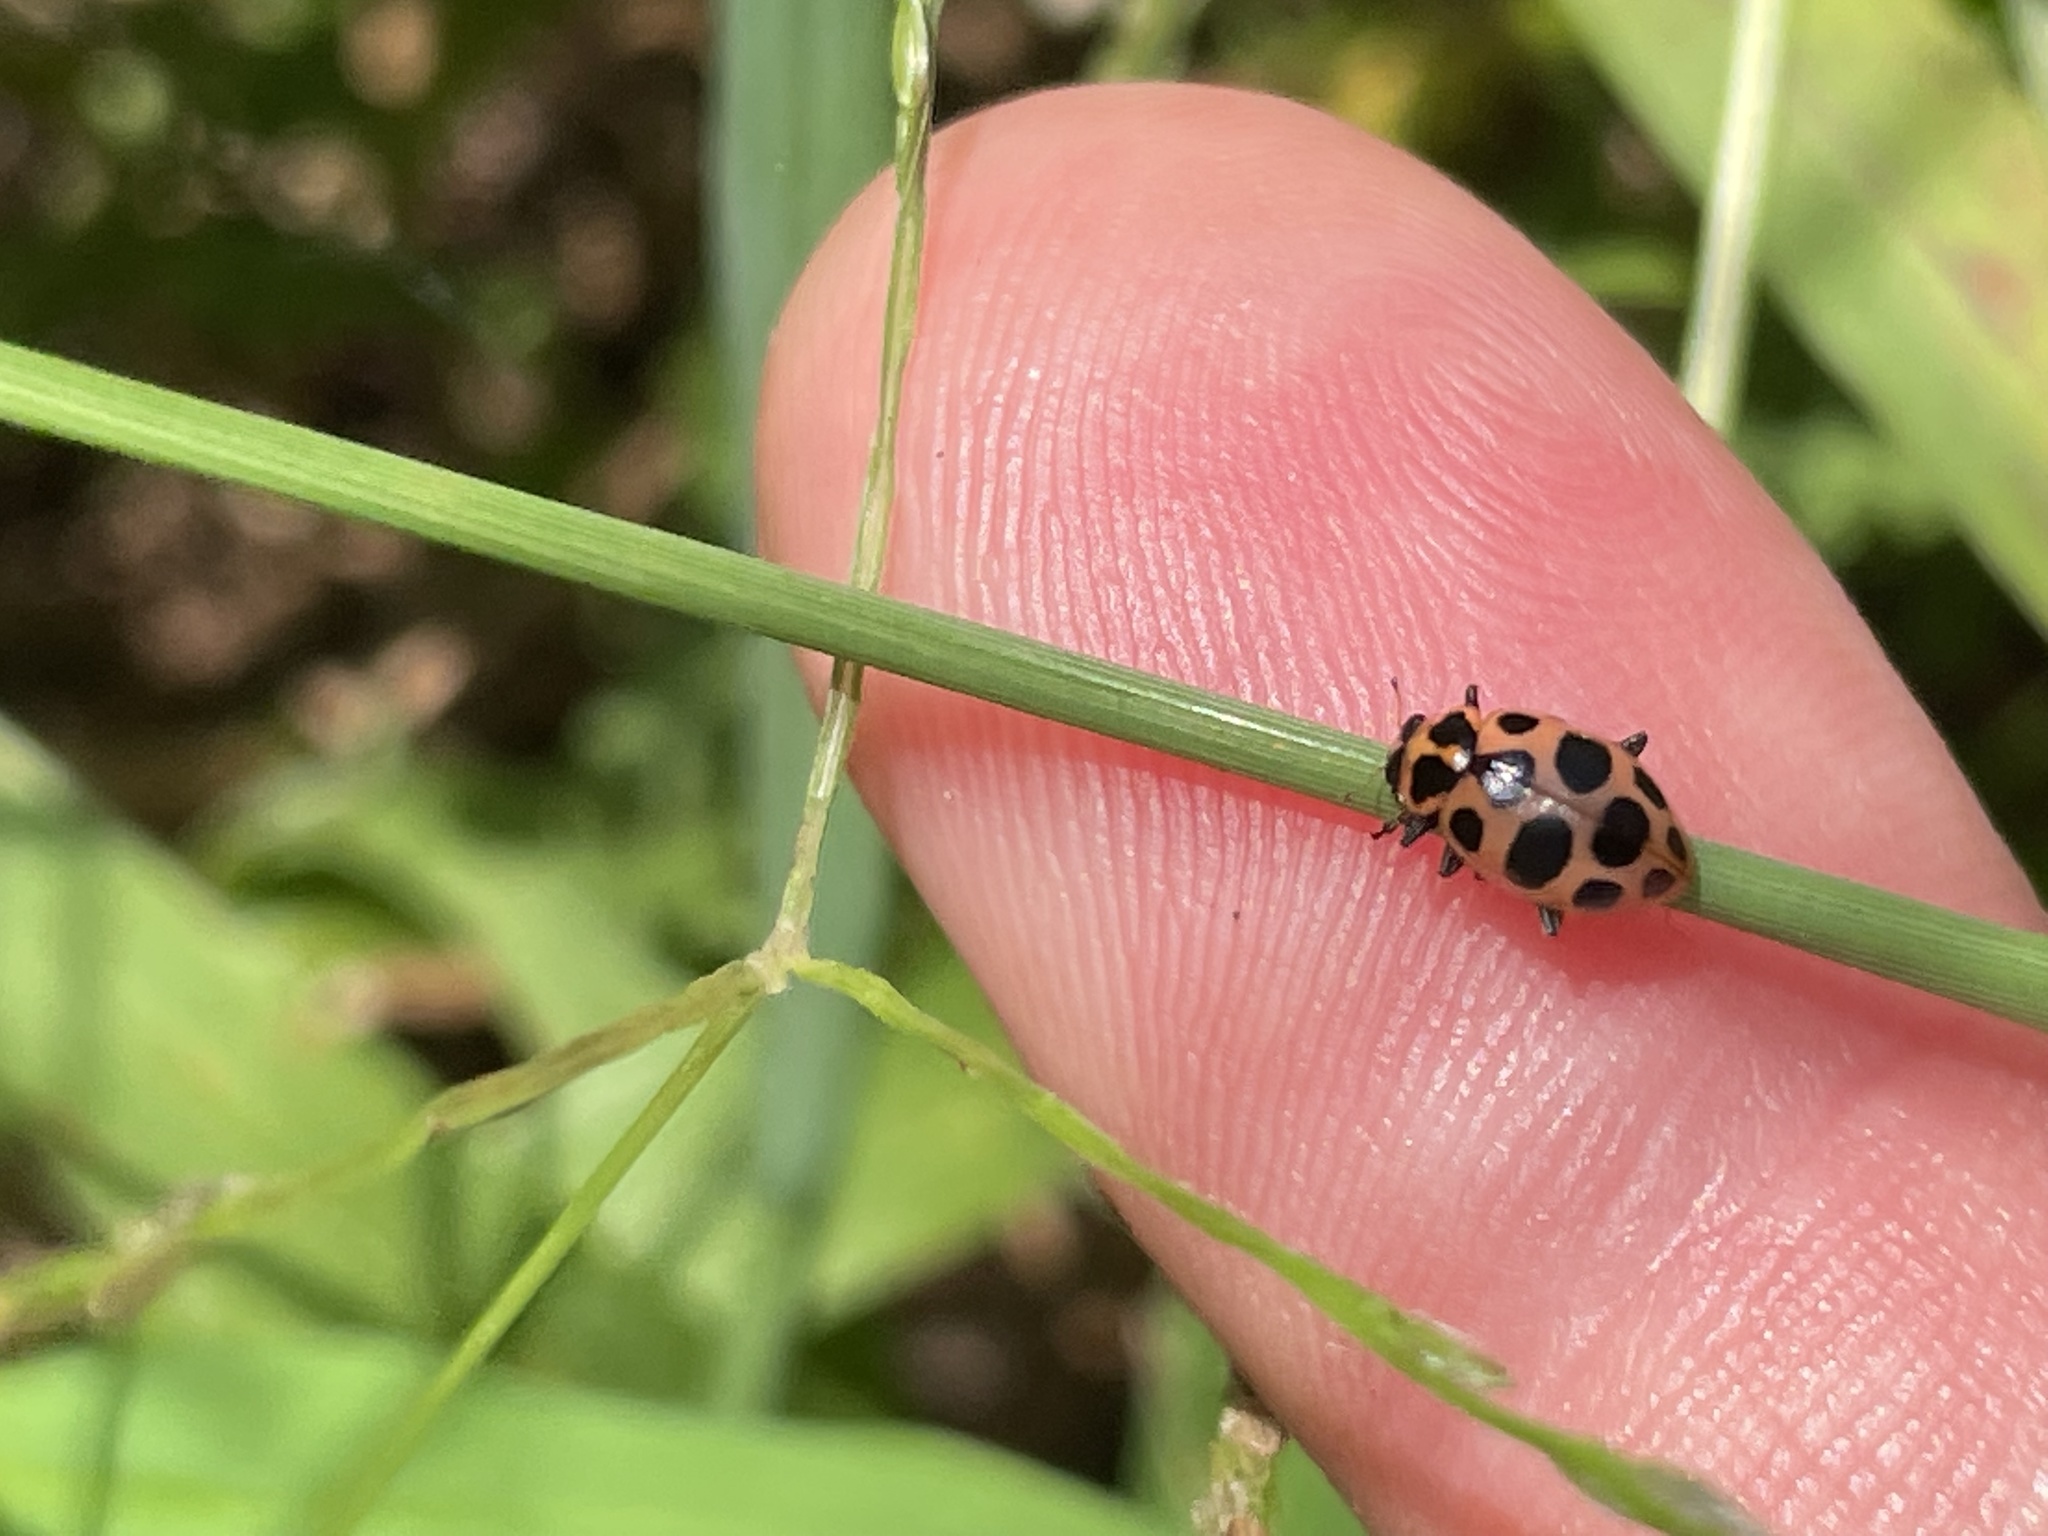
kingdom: Animalia
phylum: Arthropoda
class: Insecta
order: Coleoptera
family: Coccinellidae
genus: Coleomegilla
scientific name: Coleomegilla maculata
